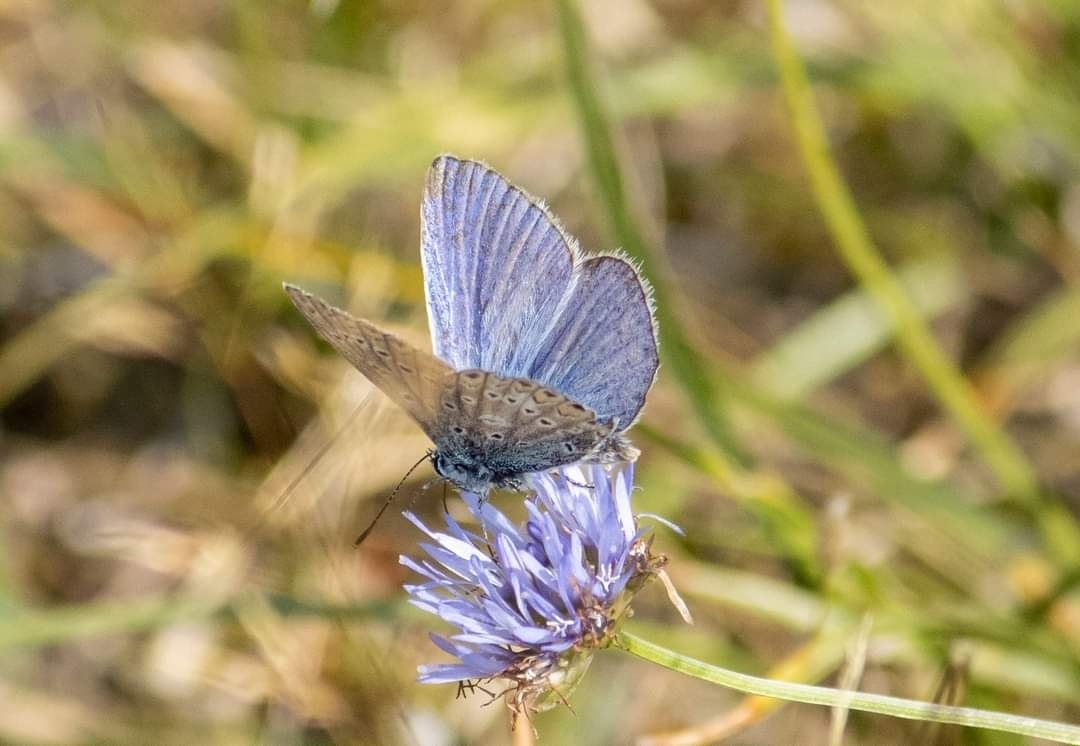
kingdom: Animalia
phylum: Arthropoda
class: Insecta
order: Lepidoptera
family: Lycaenidae
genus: Polyommatus
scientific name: Polyommatus icarus
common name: Common blue
